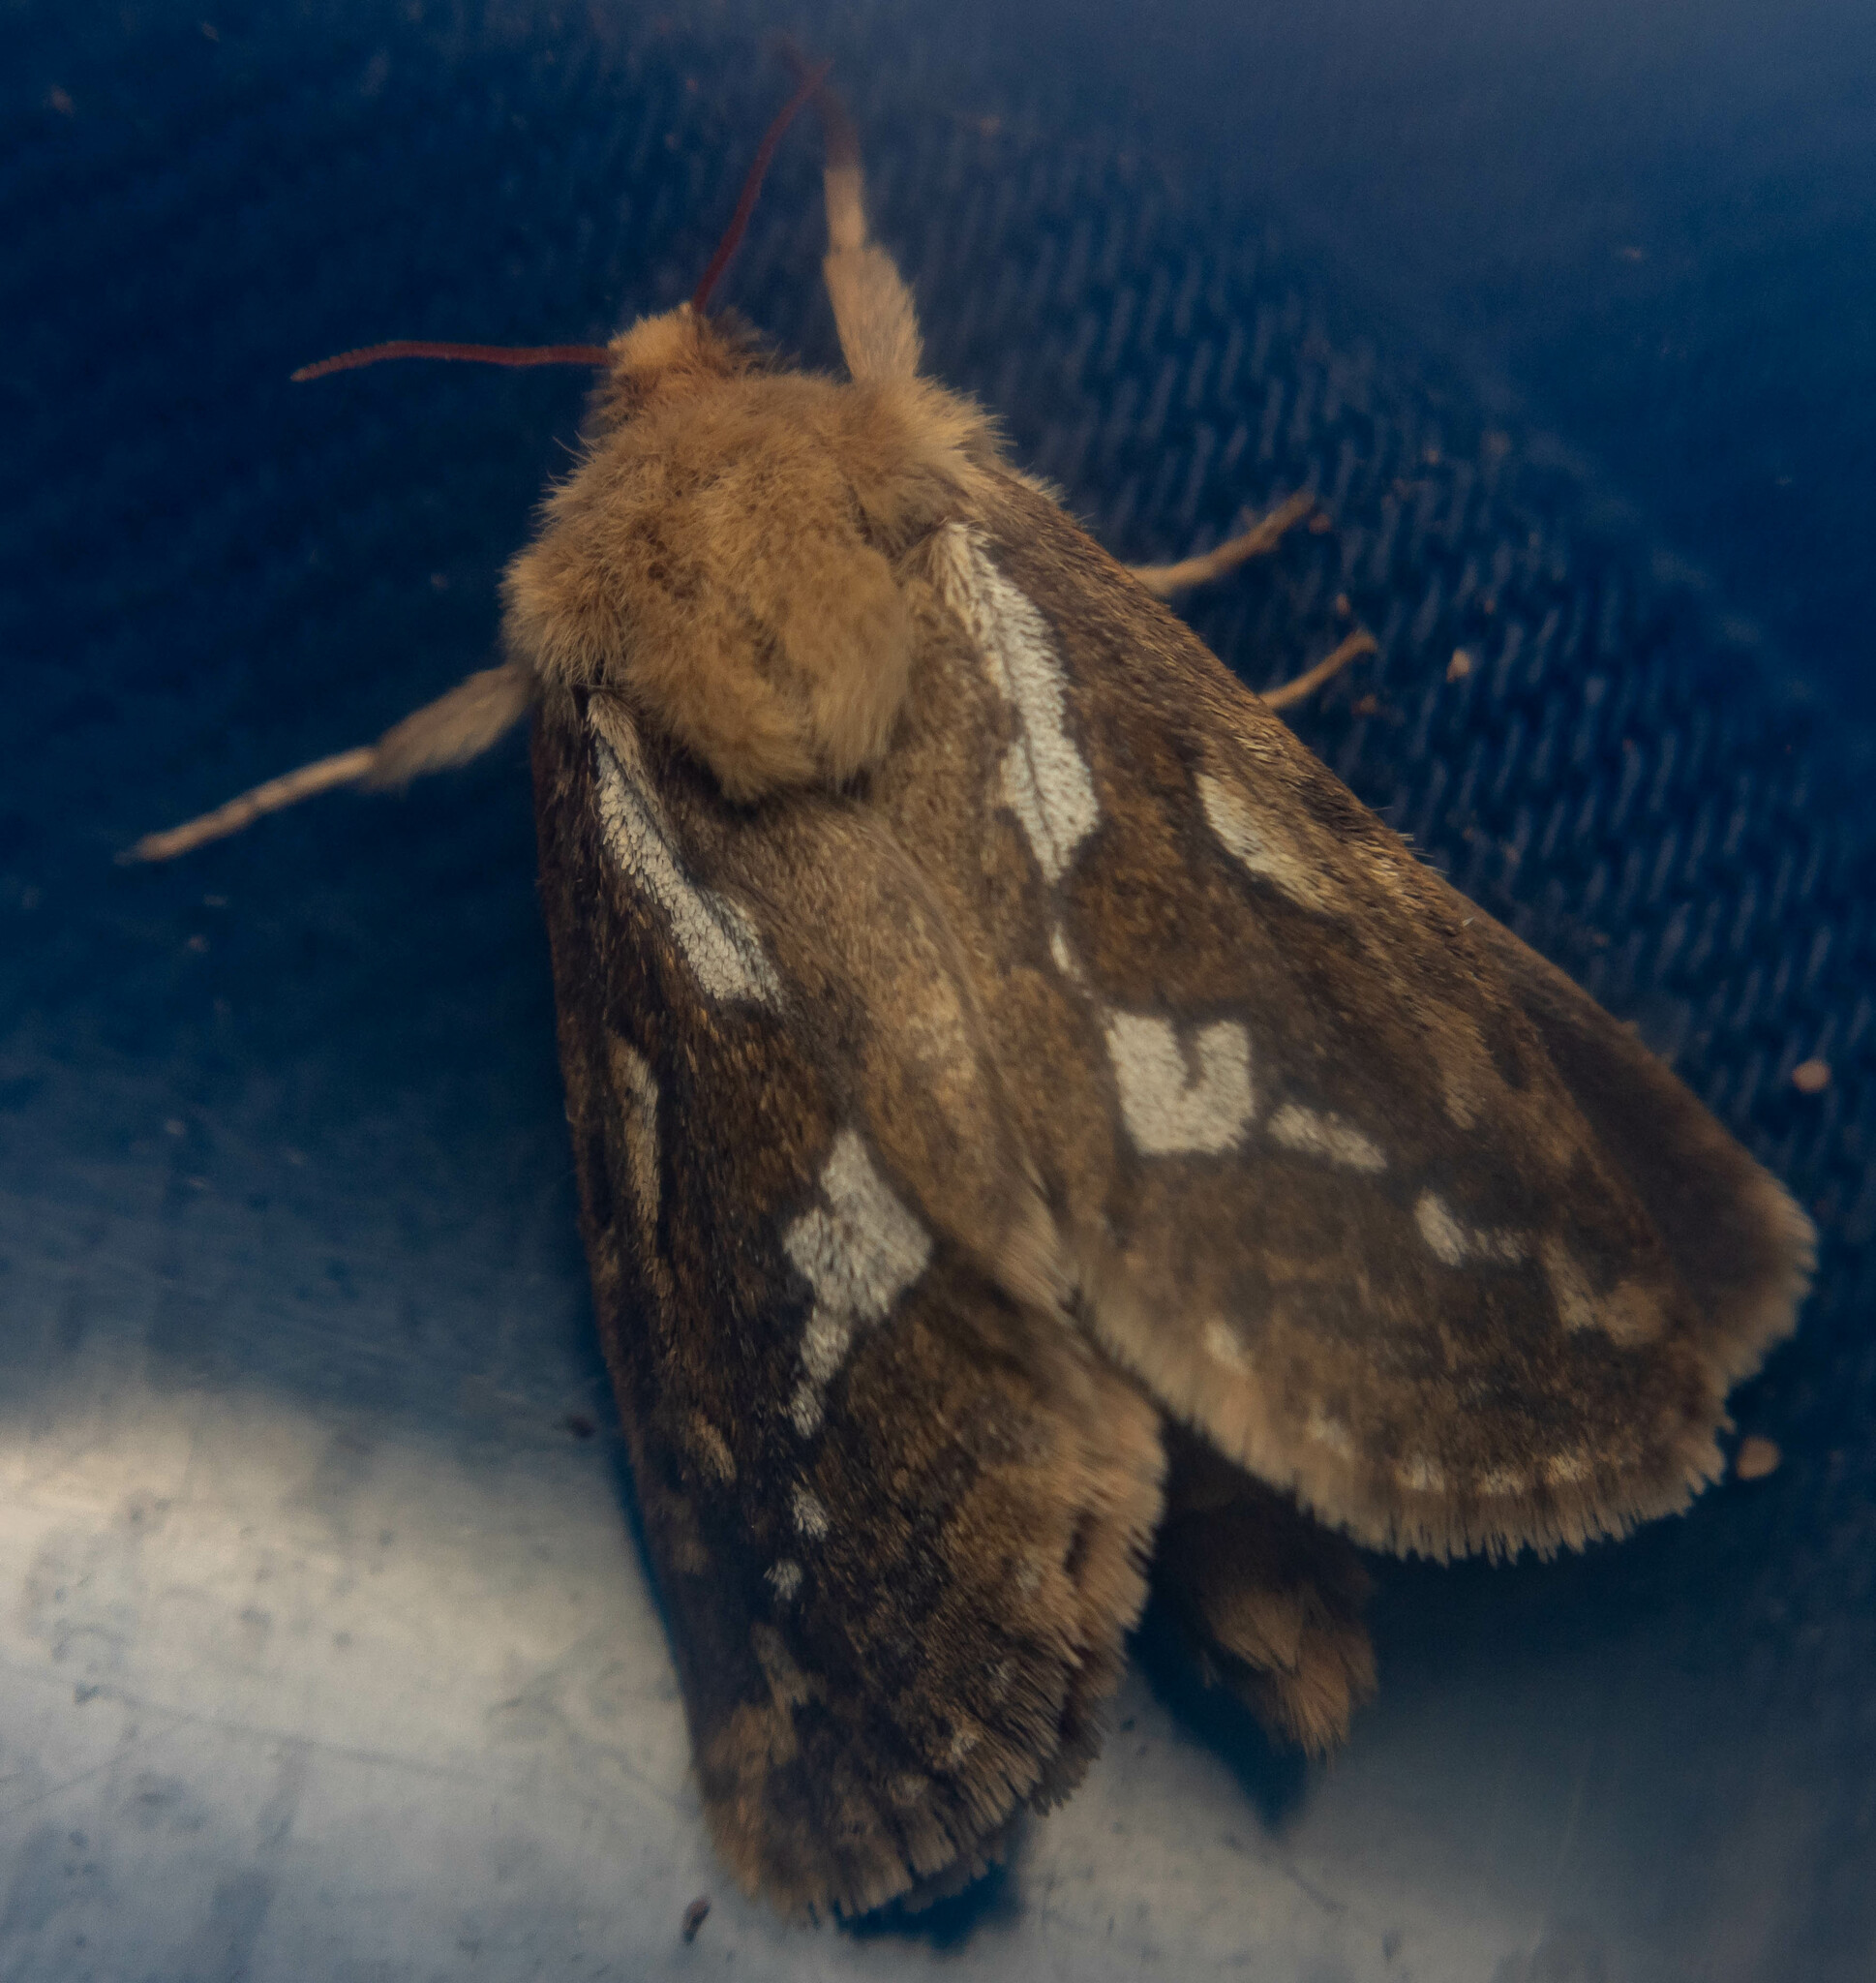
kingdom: Animalia
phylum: Arthropoda
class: Insecta
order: Lepidoptera
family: Hepialidae
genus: Korscheltellus
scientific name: Korscheltellus lupulina
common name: Common swift
